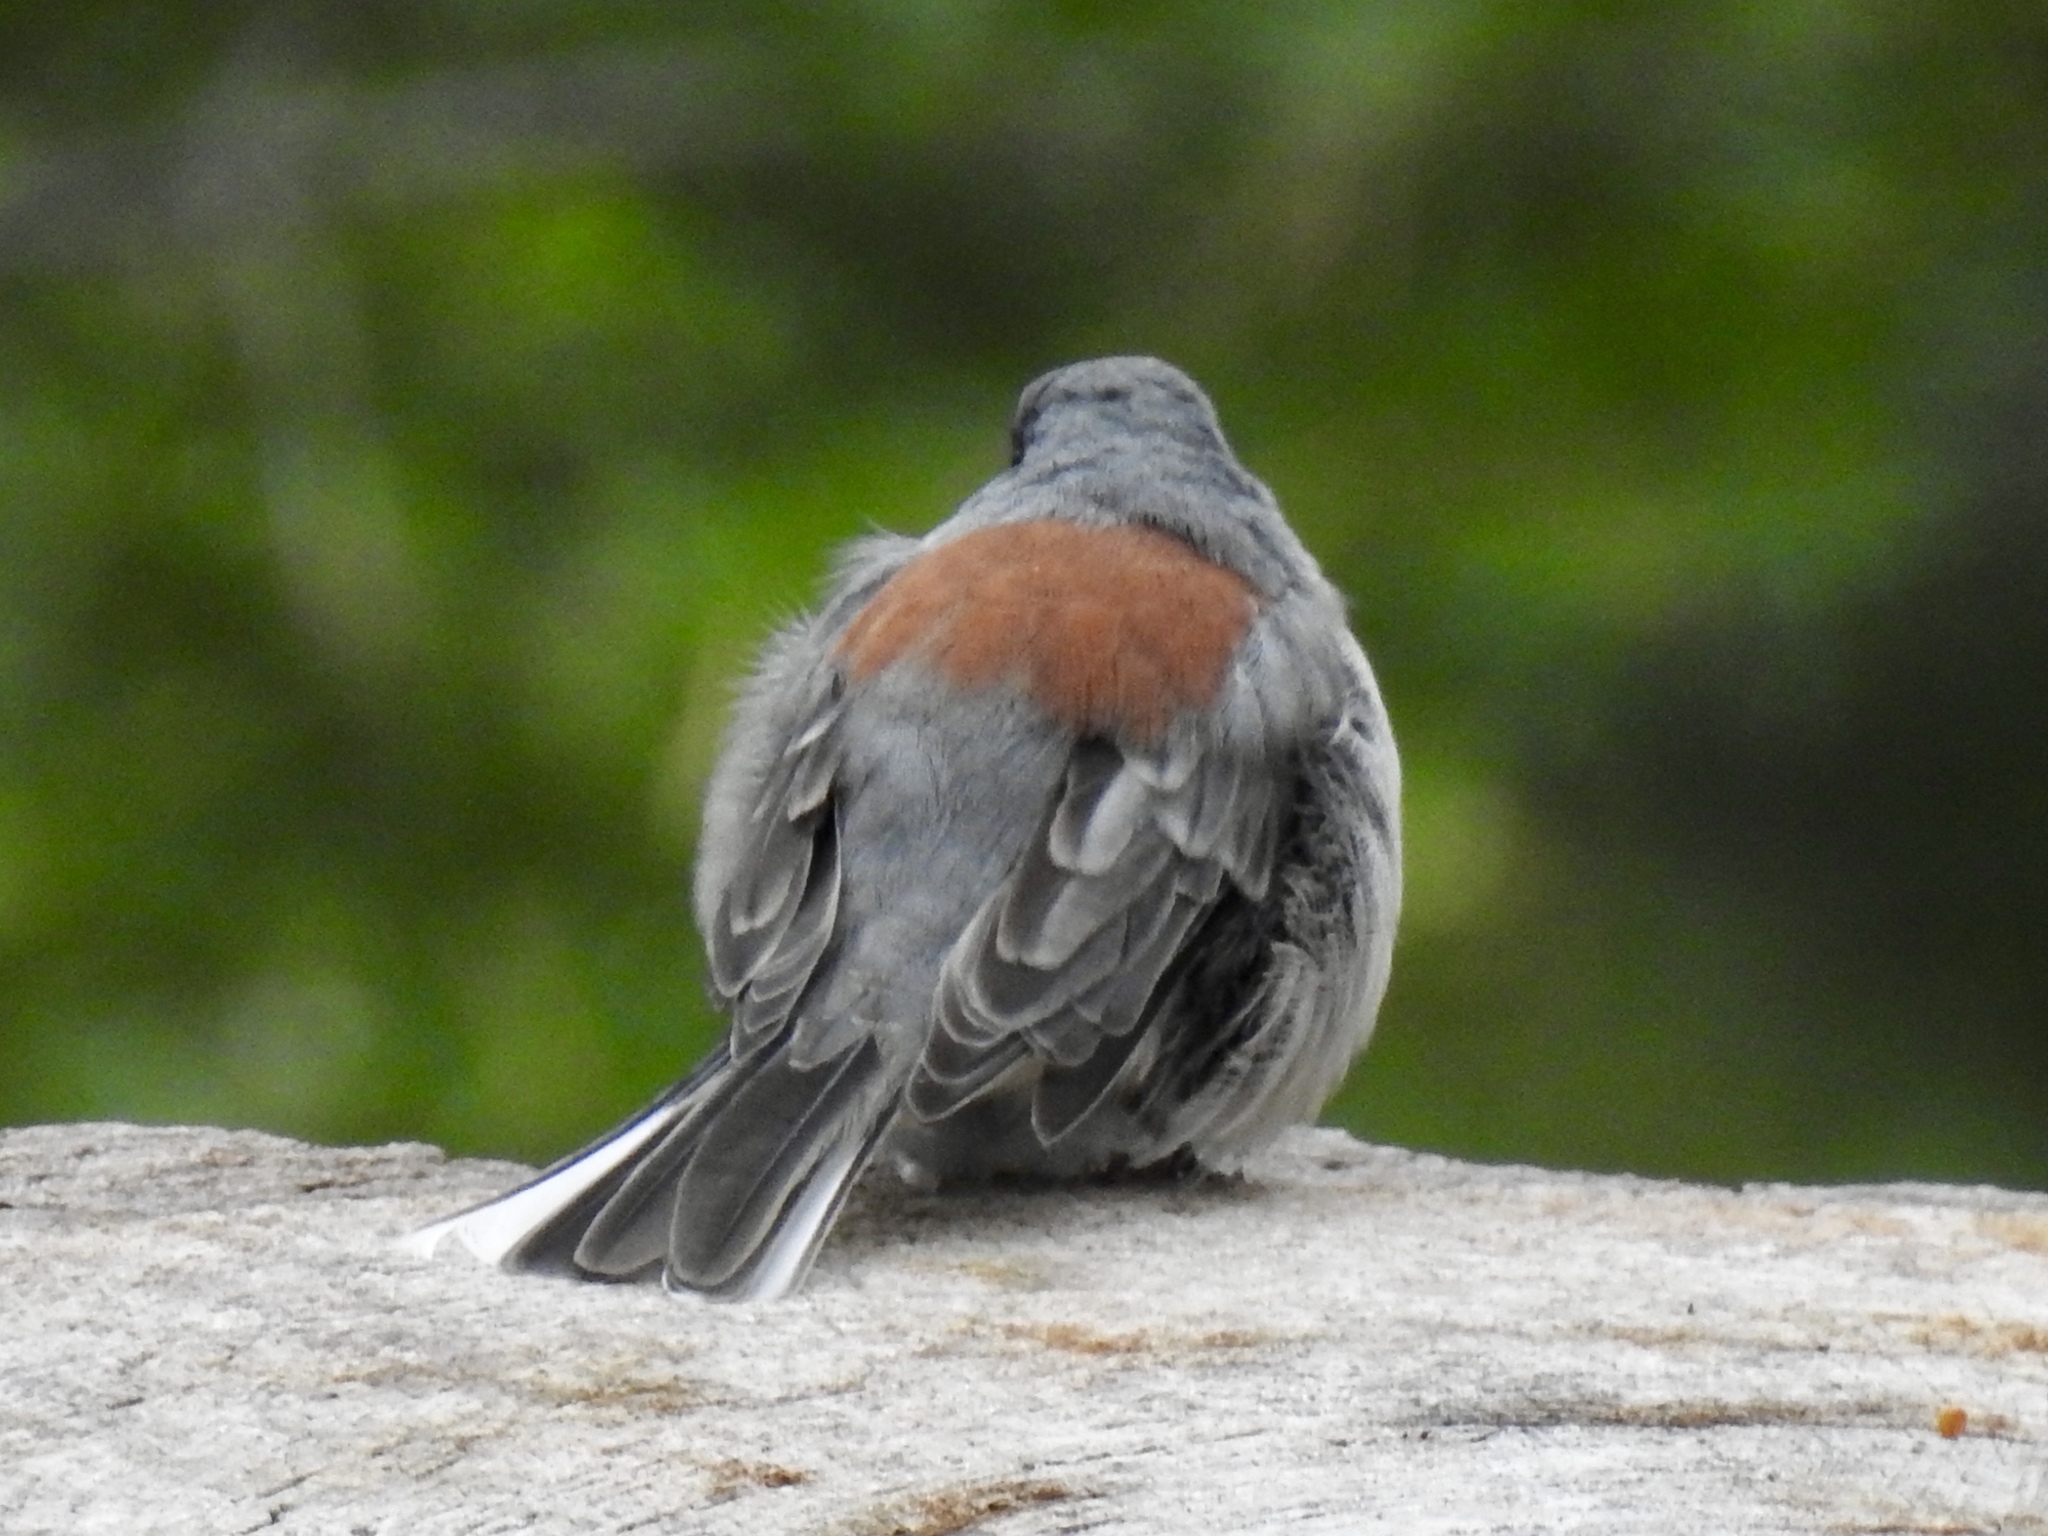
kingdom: Animalia
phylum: Chordata
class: Aves
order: Passeriformes
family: Passerellidae
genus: Junco
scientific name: Junco hyemalis
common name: Dark-eyed junco
